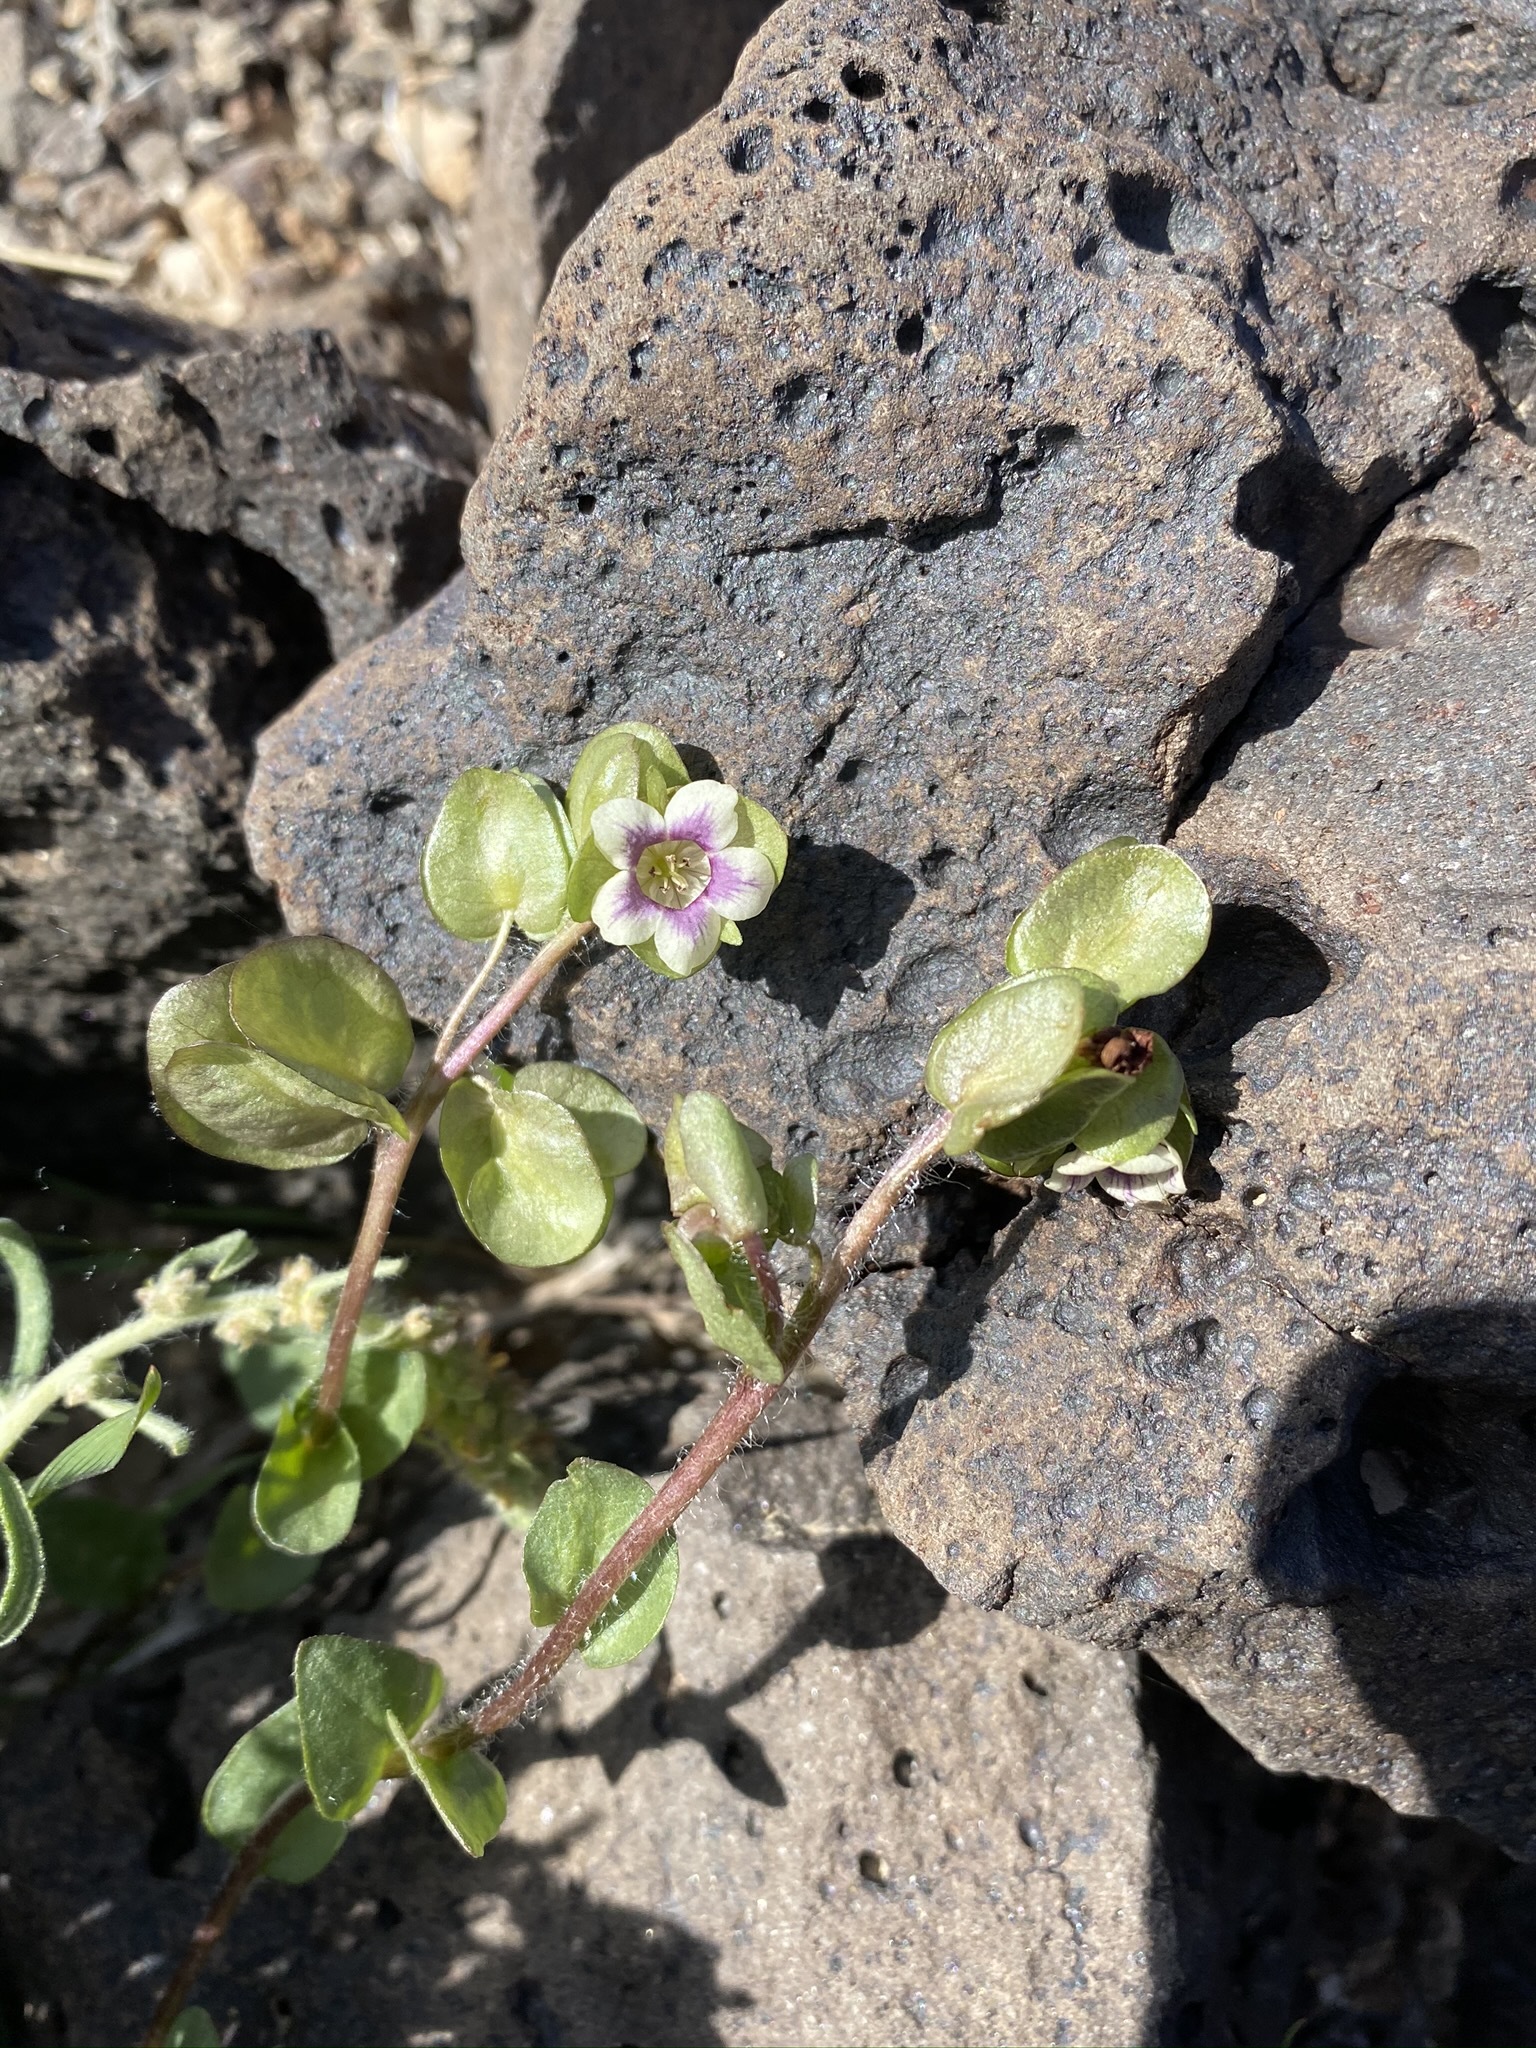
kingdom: Plantae
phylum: Tracheophyta
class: Magnoliopsida
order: Boraginales
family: Hydrophyllaceae
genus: Tricardia
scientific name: Tricardia watsonii
